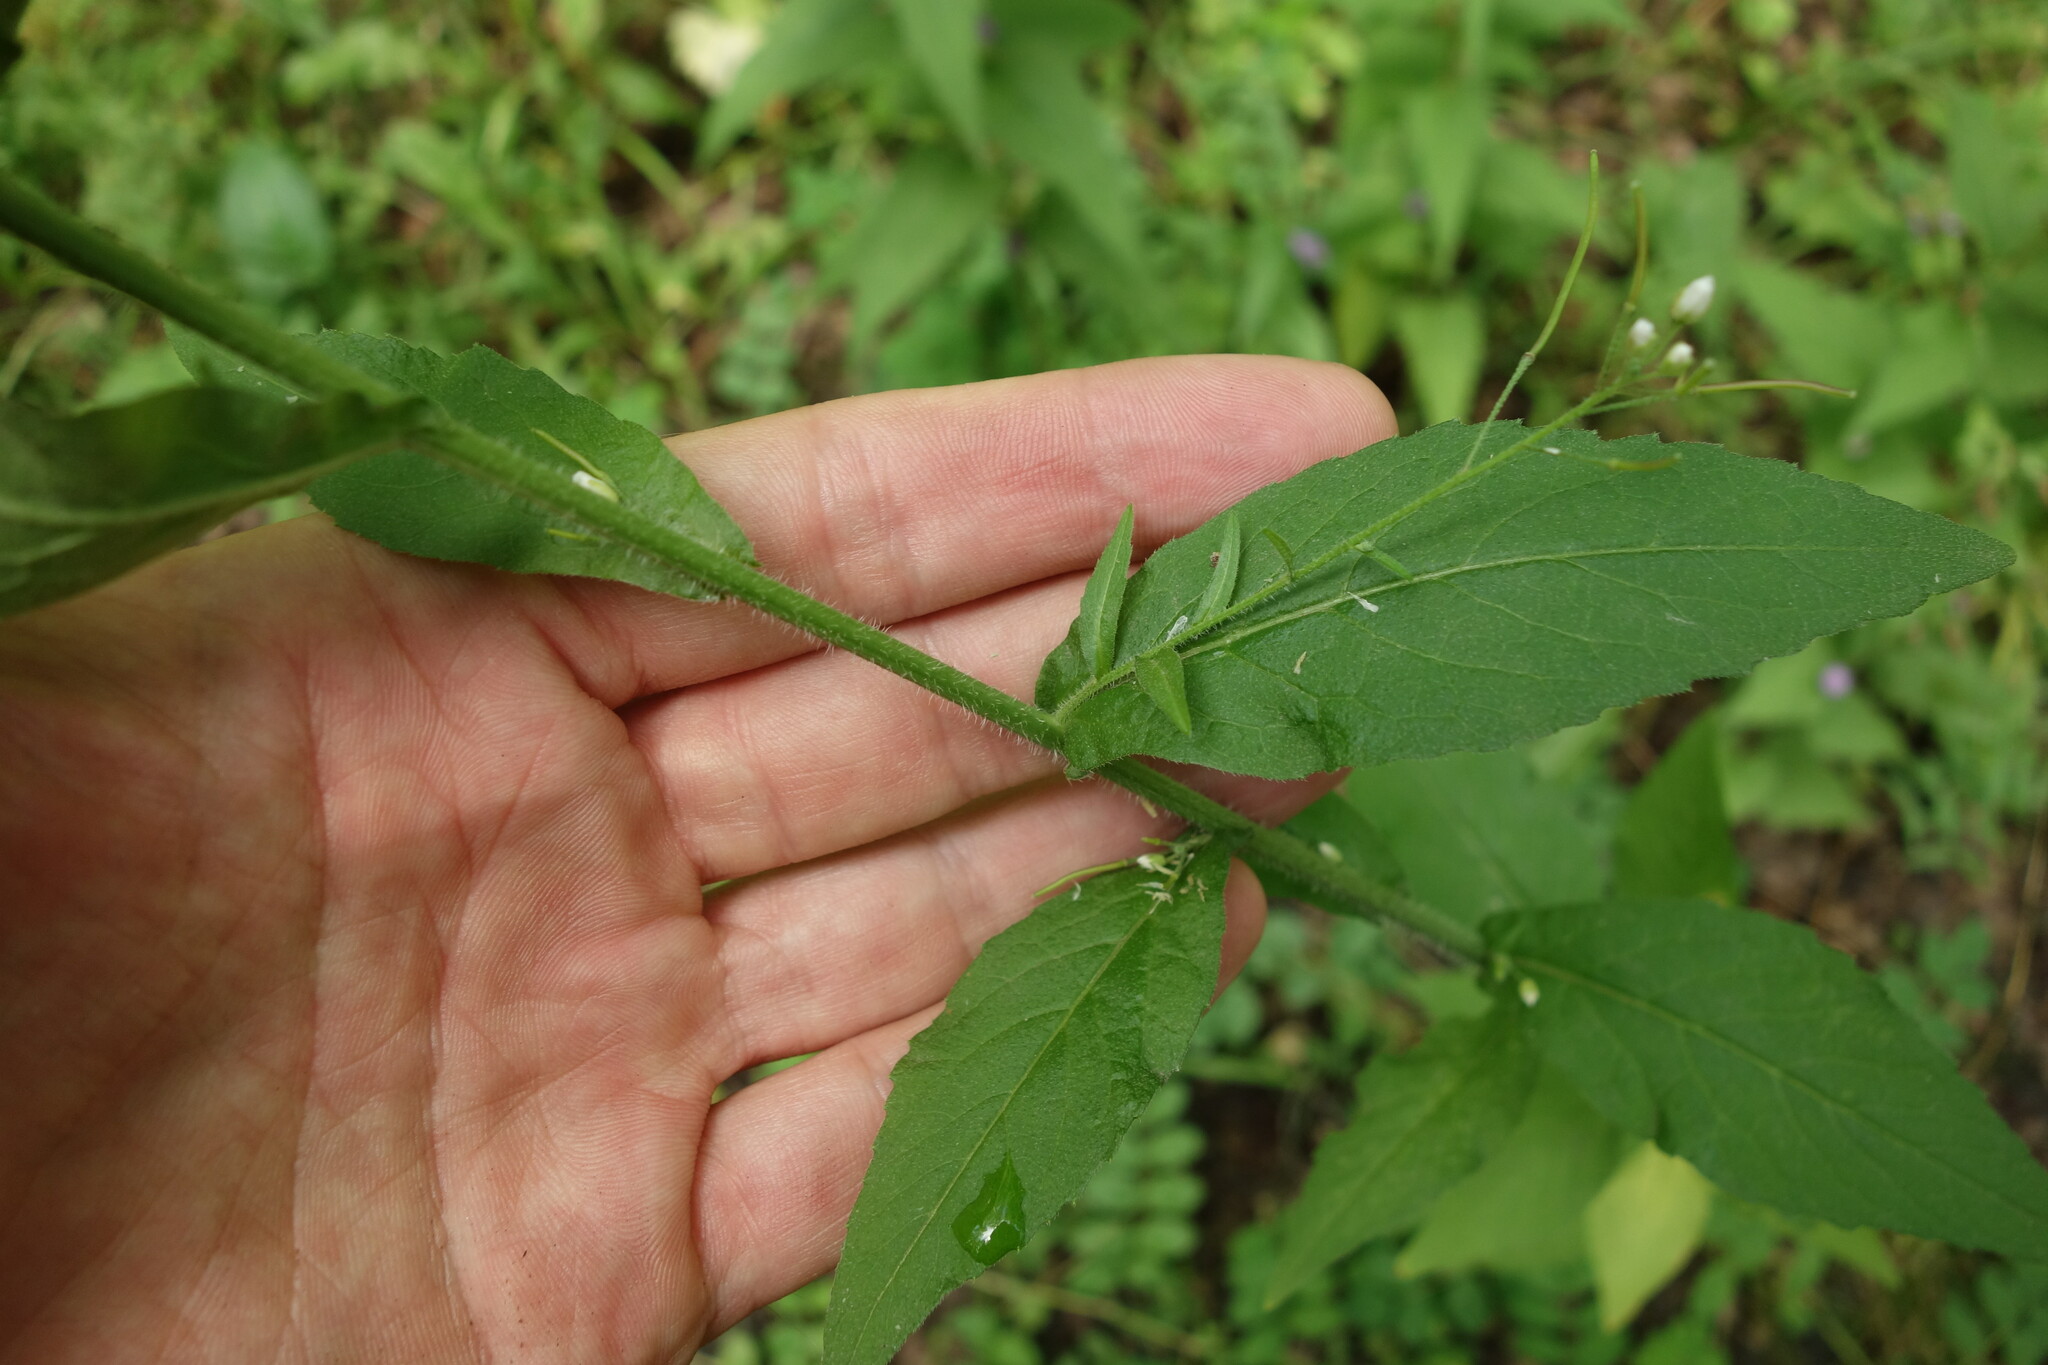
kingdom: Plantae
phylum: Tracheophyta
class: Magnoliopsida
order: Brassicales
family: Brassicaceae
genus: Catolobus
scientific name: Catolobus pendulus
